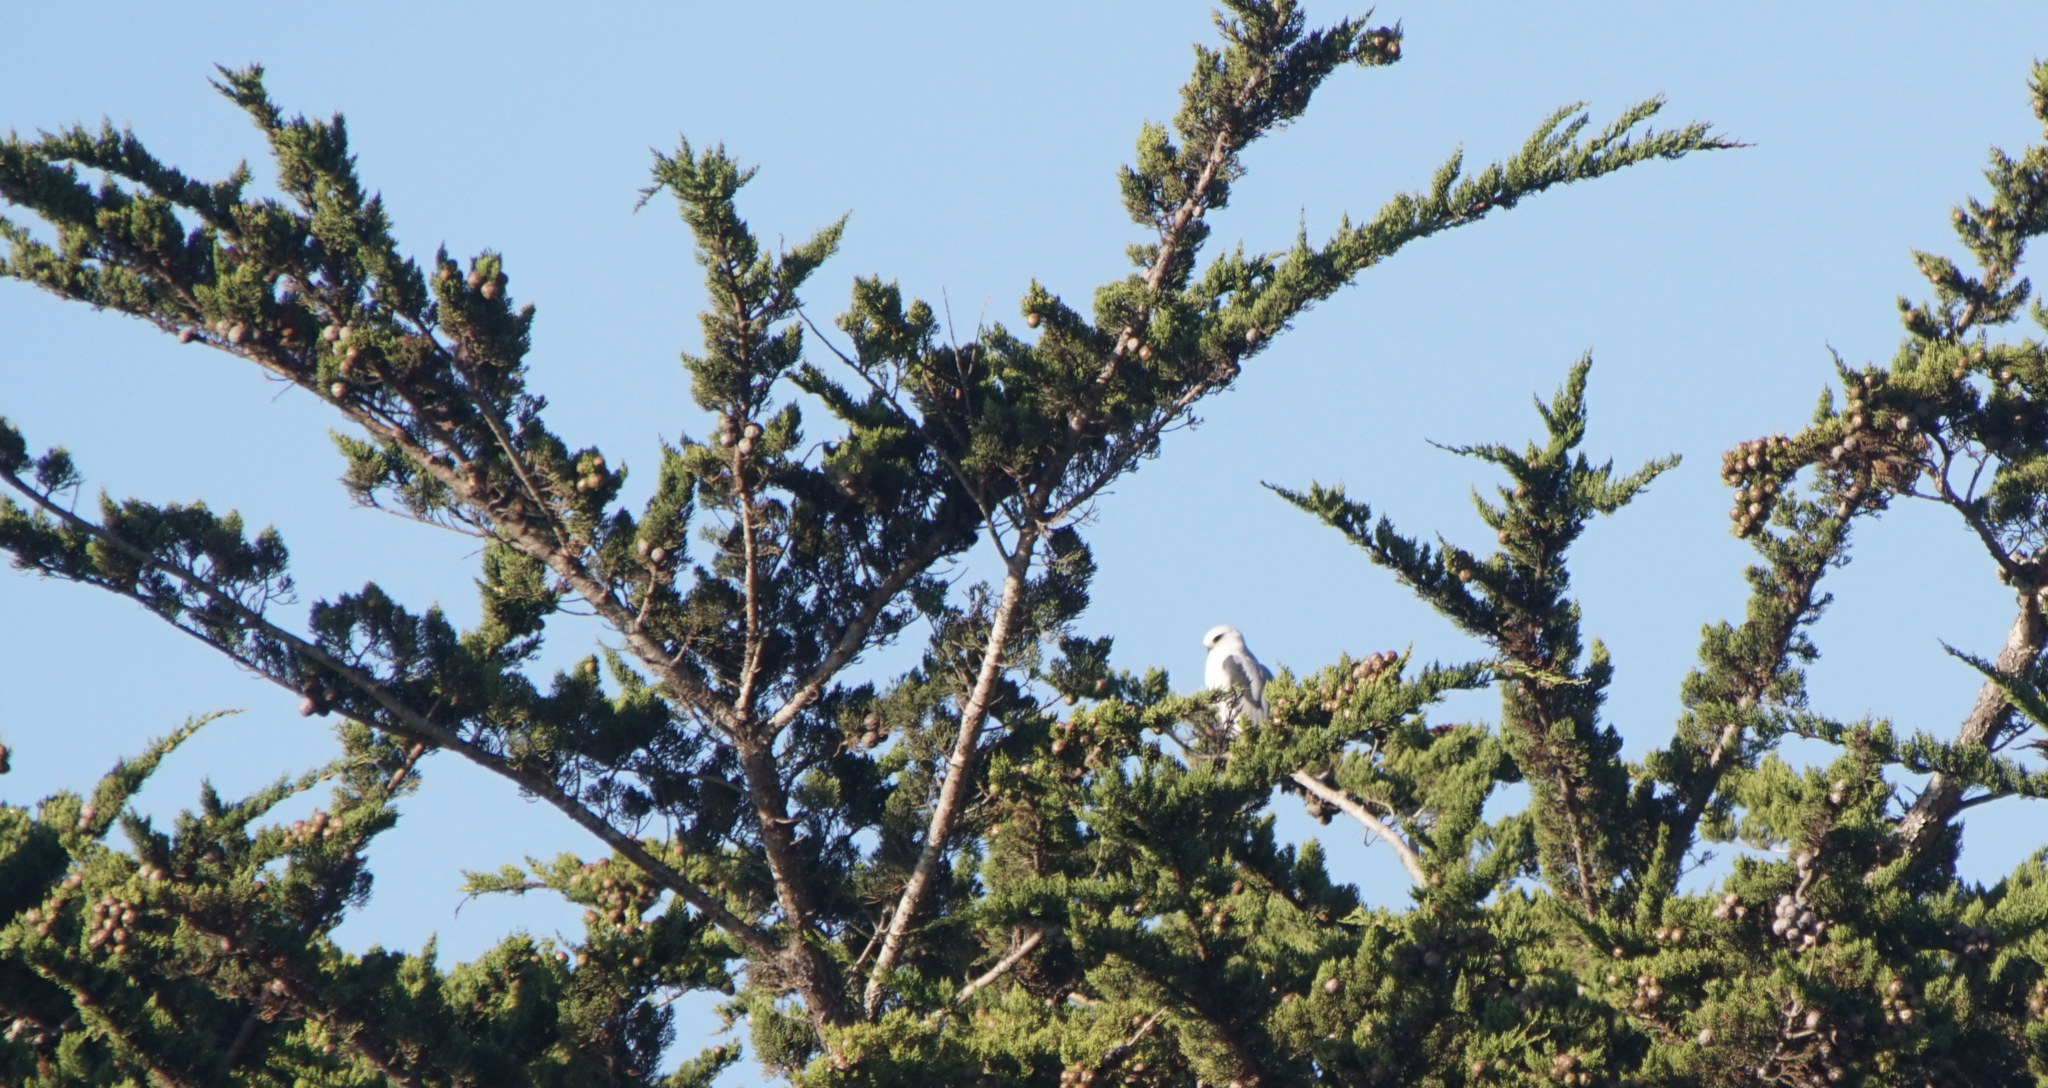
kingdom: Animalia
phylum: Chordata
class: Aves
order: Accipitriformes
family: Accipitridae
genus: Elanus
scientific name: Elanus leucurus
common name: White-tailed kite
